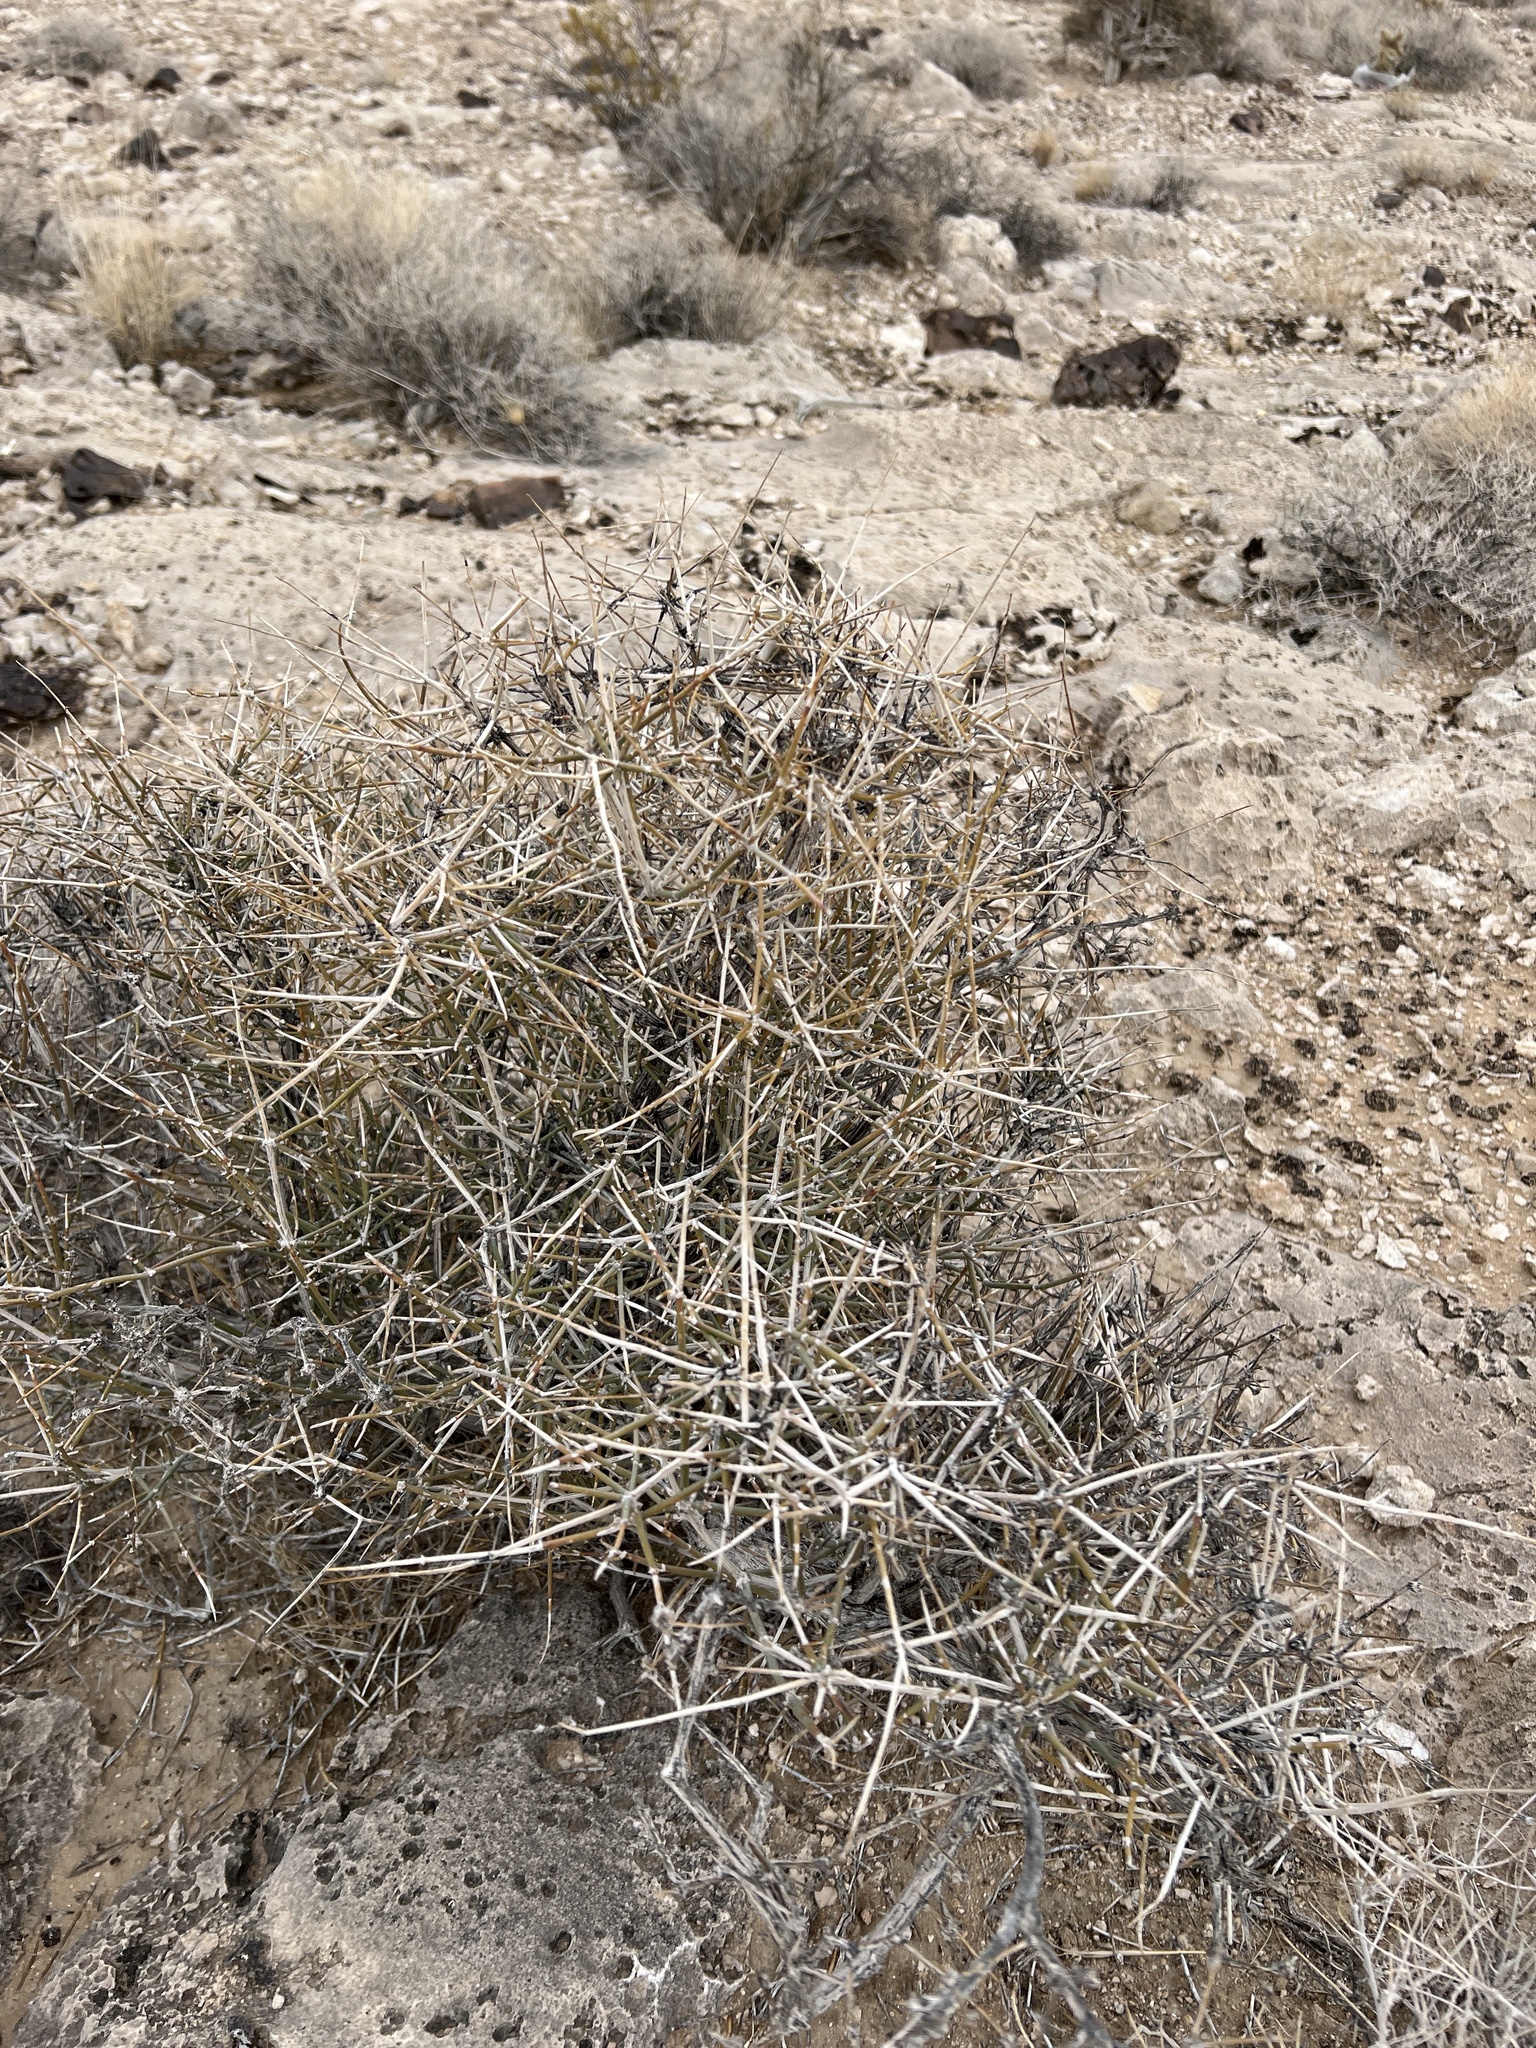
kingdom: Plantae
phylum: Tracheophyta
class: Gnetopsida
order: Ephedrales
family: Ephedraceae
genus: Ephedra
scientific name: Ephedra nevadensis
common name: Gray ephedra
